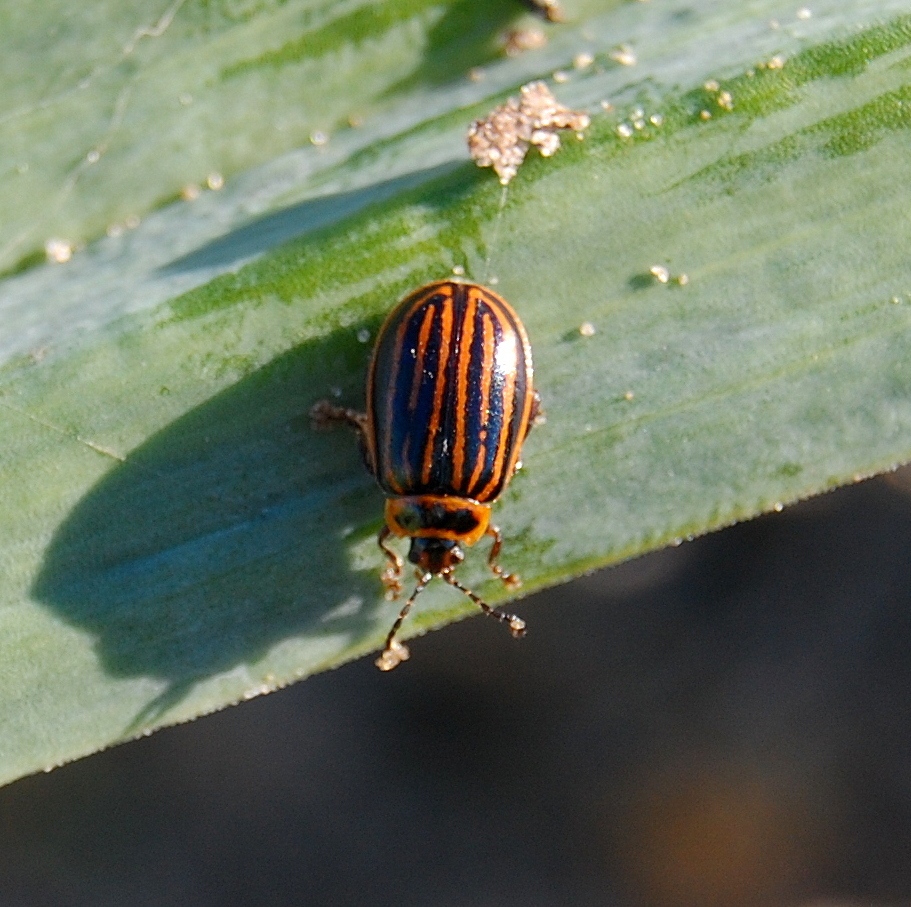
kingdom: Animalia
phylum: Arthropoda
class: Insecta
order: Coleoptera
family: Chrysomelidae
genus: Alagoasa
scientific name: Alagoasa
